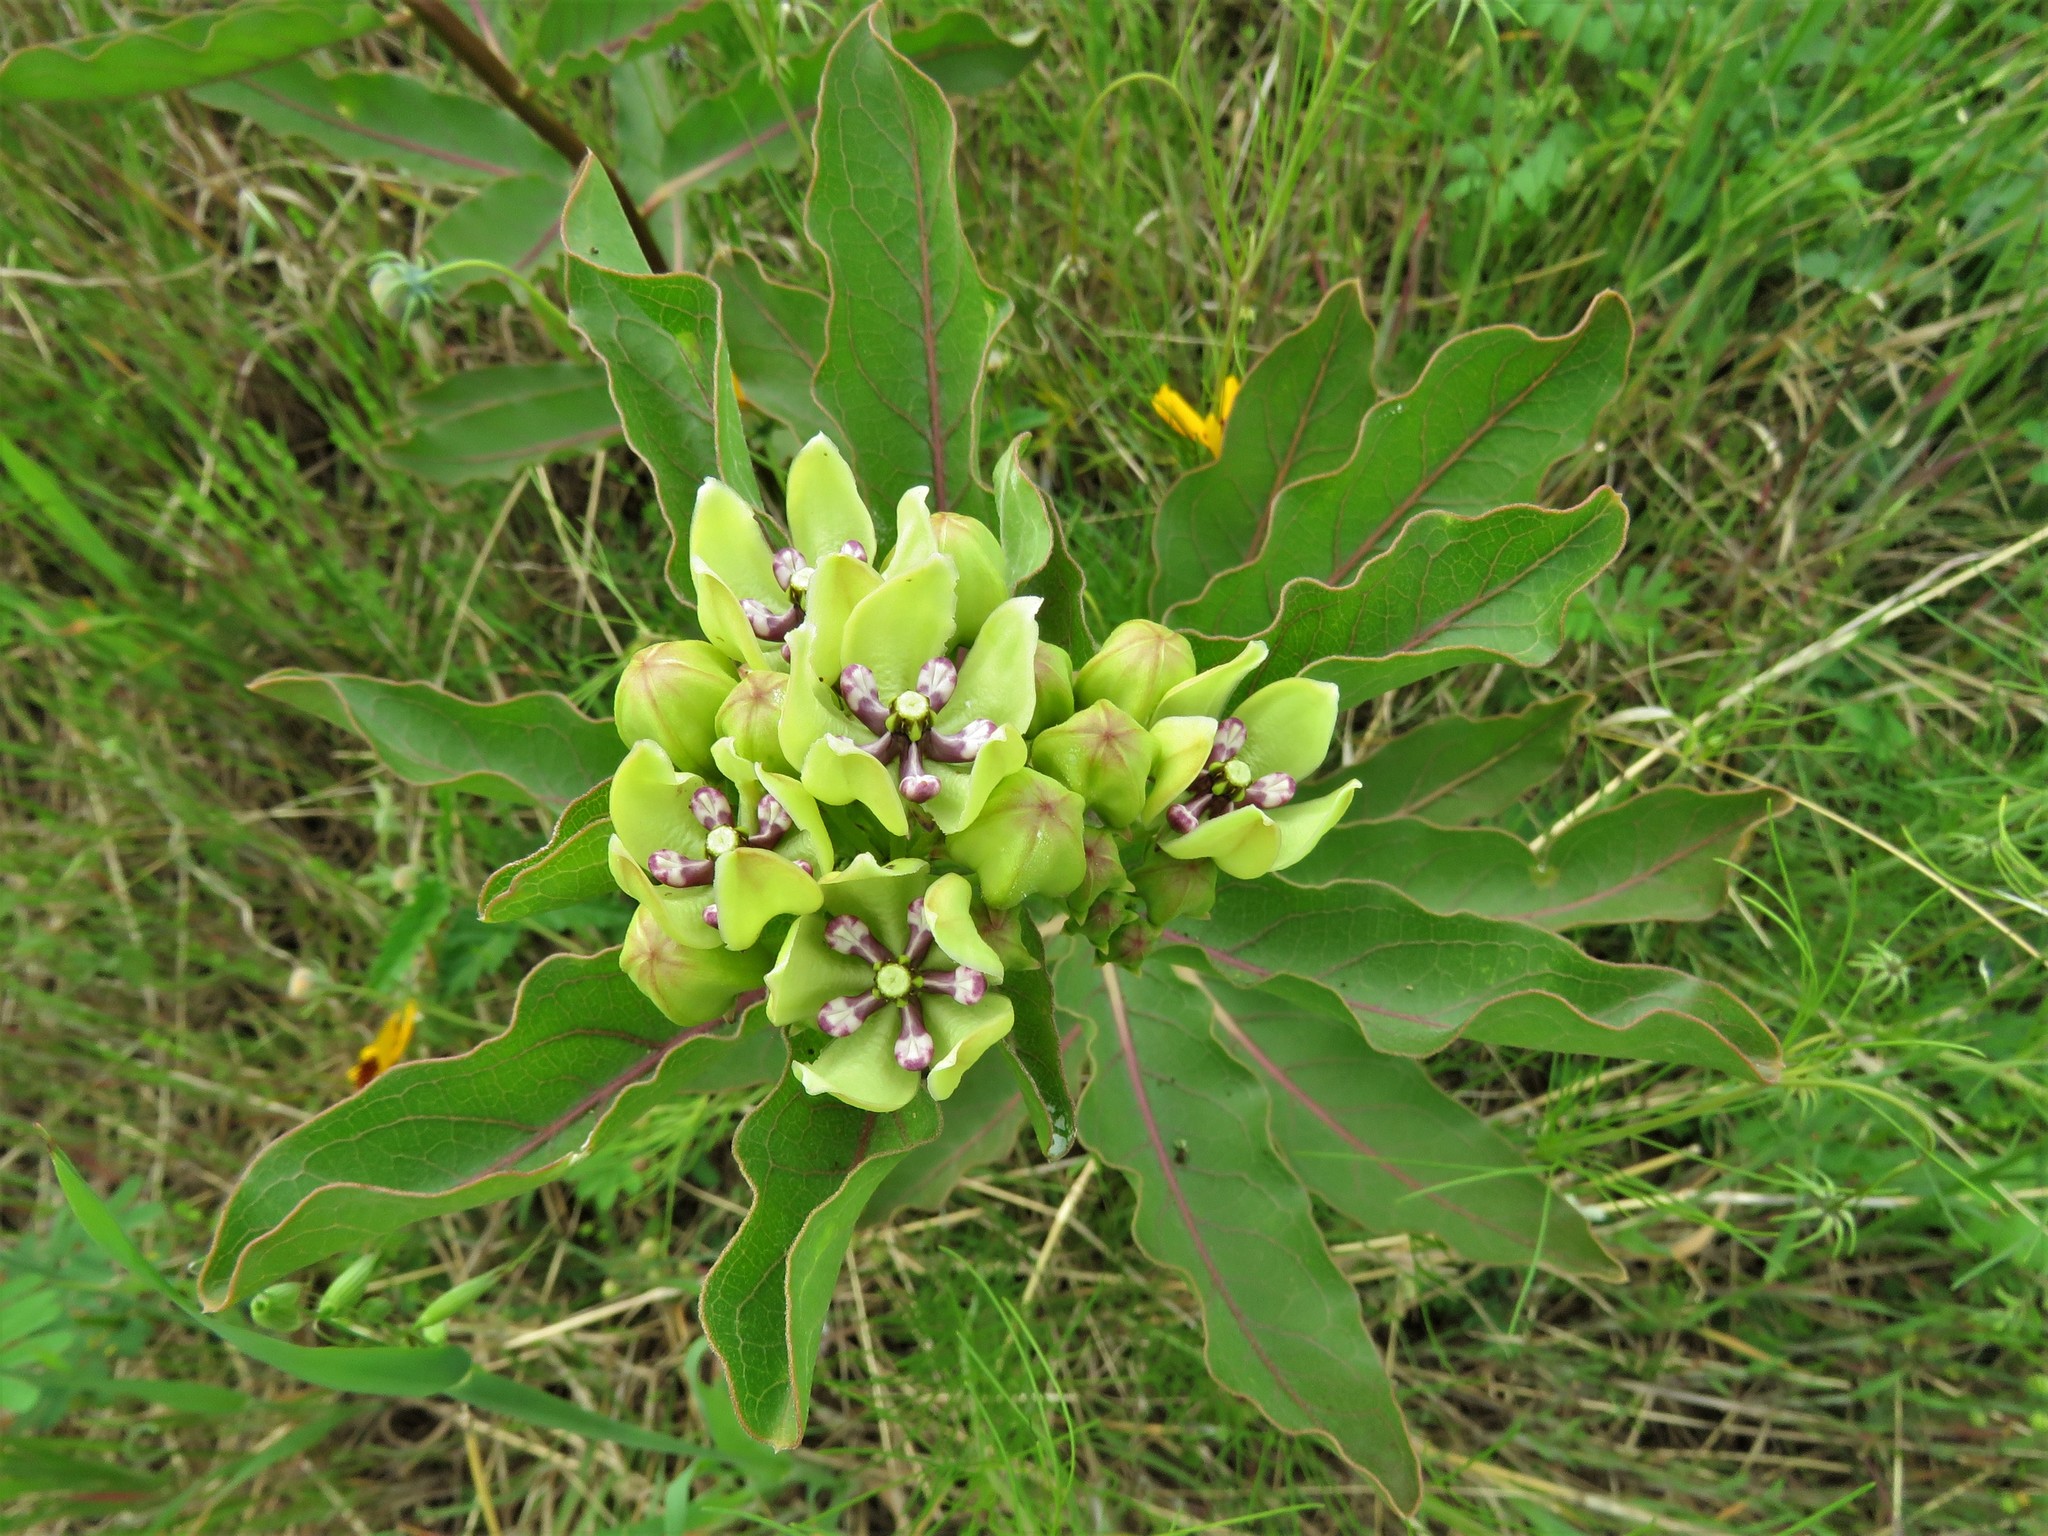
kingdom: Plantae
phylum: Tracheophyta
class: Magnoliopsida
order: Gentianales
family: Apocynaceae
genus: Asclepias
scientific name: Asclepias viridis
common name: Antelope-horns
